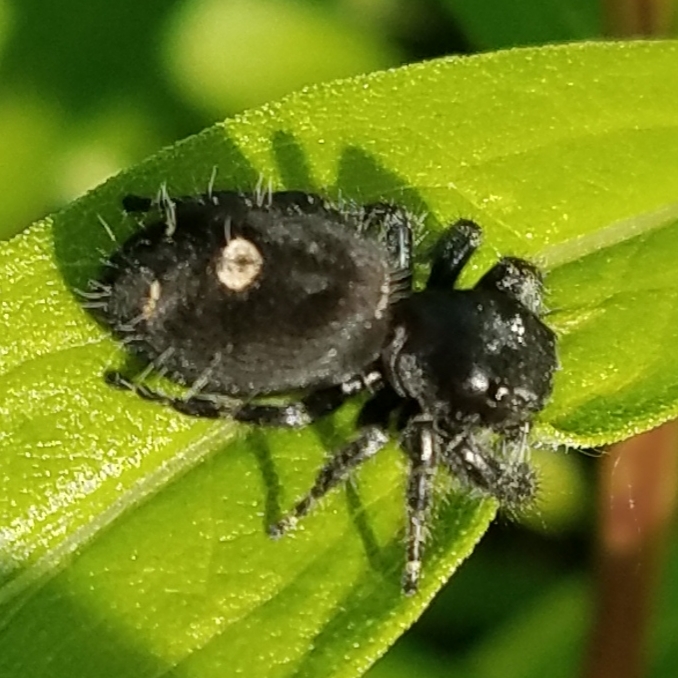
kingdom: Animalia
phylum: Arthropoda
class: Arachnida
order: Araneae
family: Salticidae
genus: Phidippus
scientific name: Phidippus audax
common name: Bold jumper
